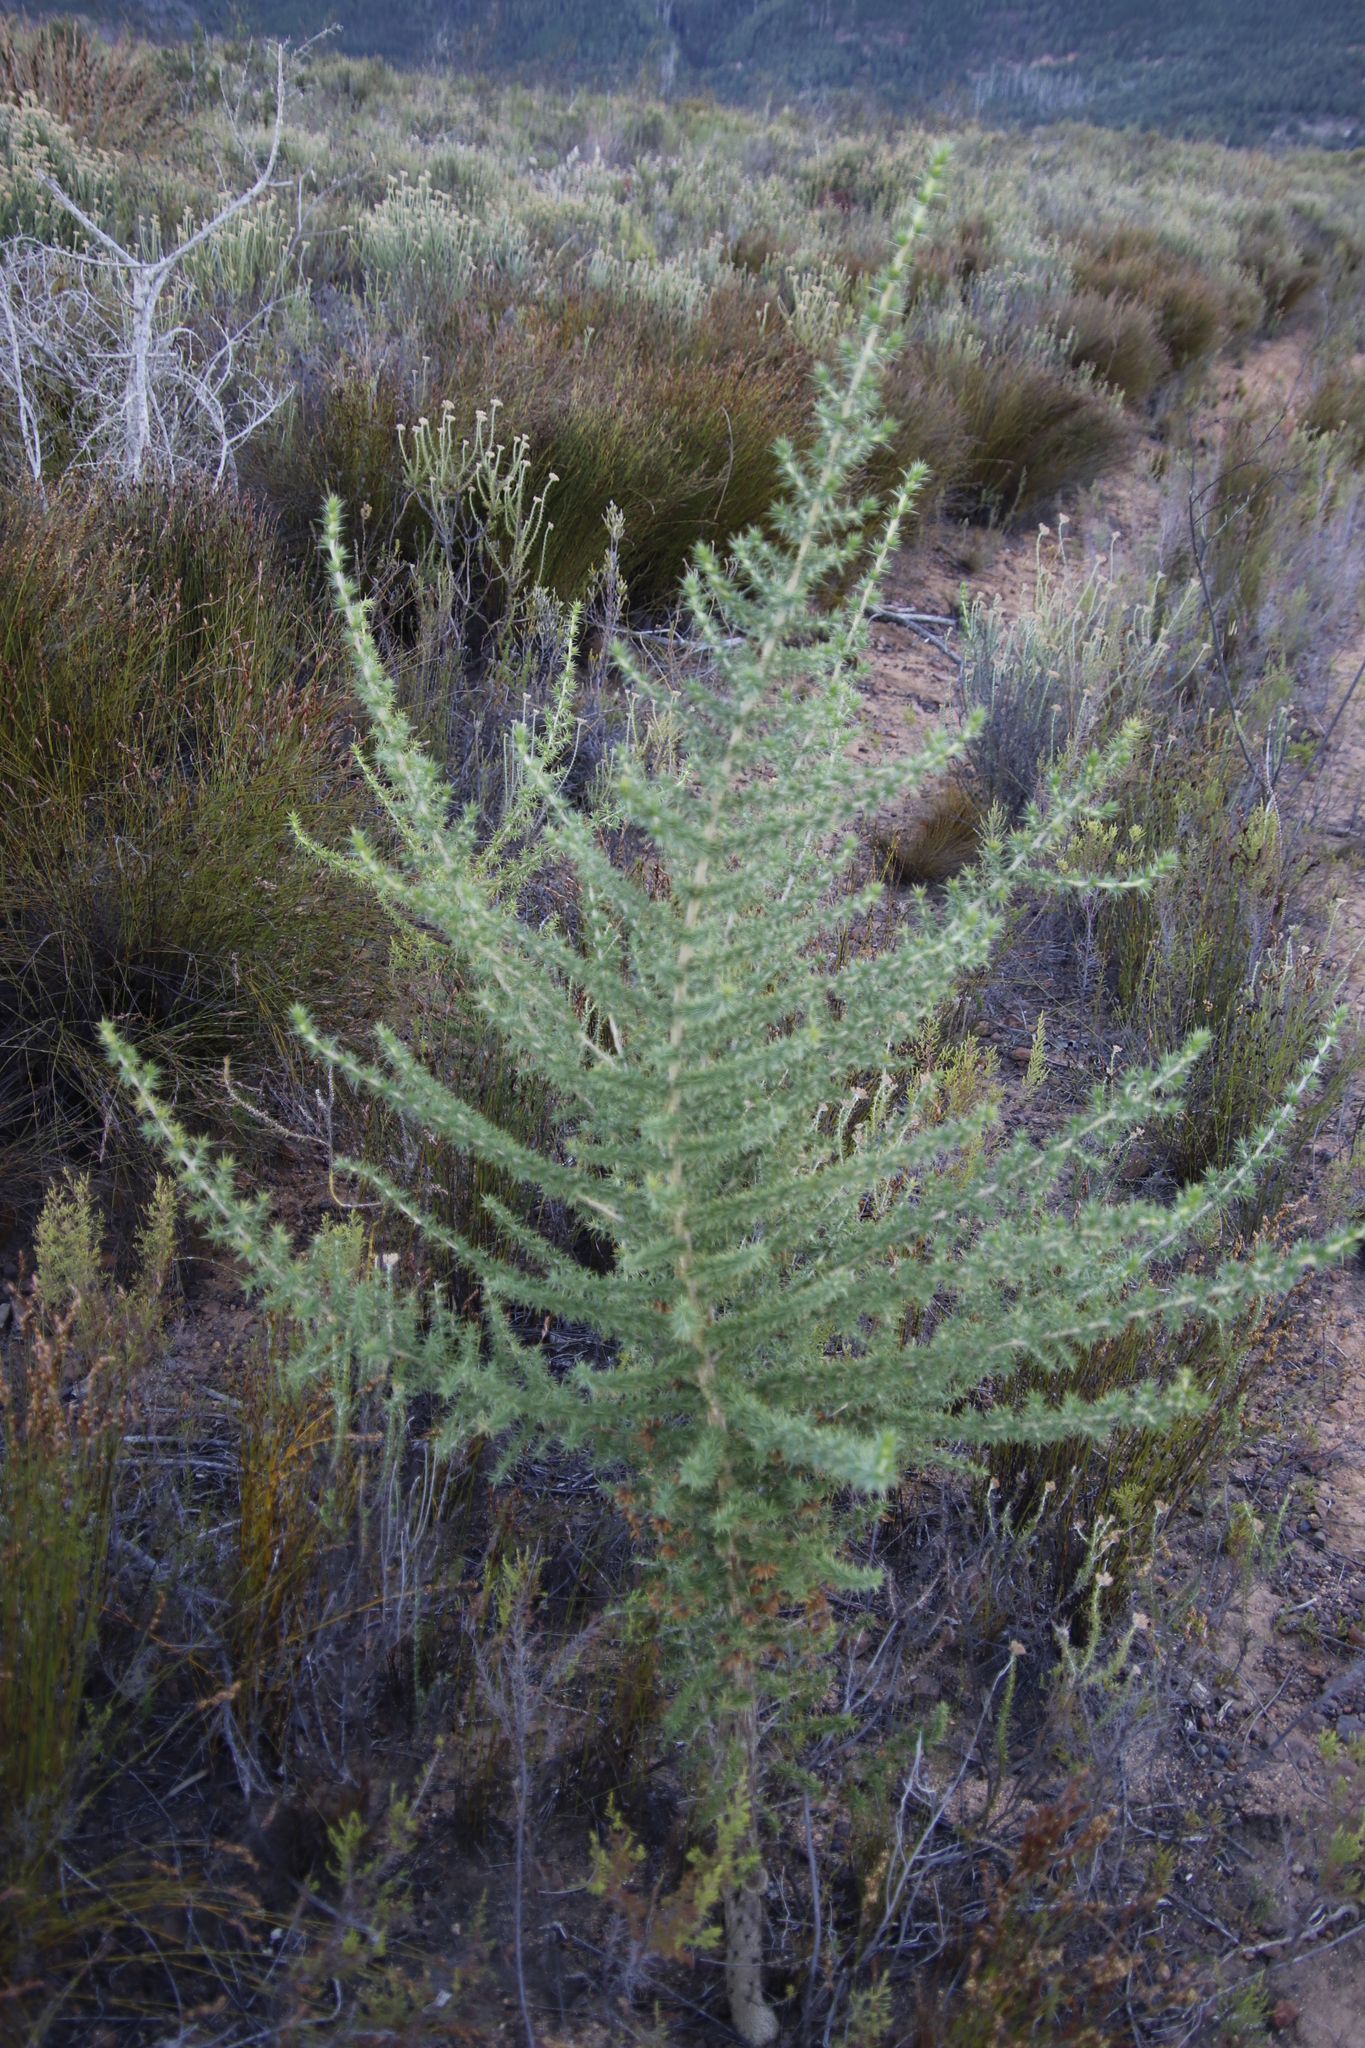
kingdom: Plantae
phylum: Tracheophyta
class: Magnoliopsida
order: Fabales
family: Fabaceae
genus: Aspalathus
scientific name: Aspalathus chenopoda
